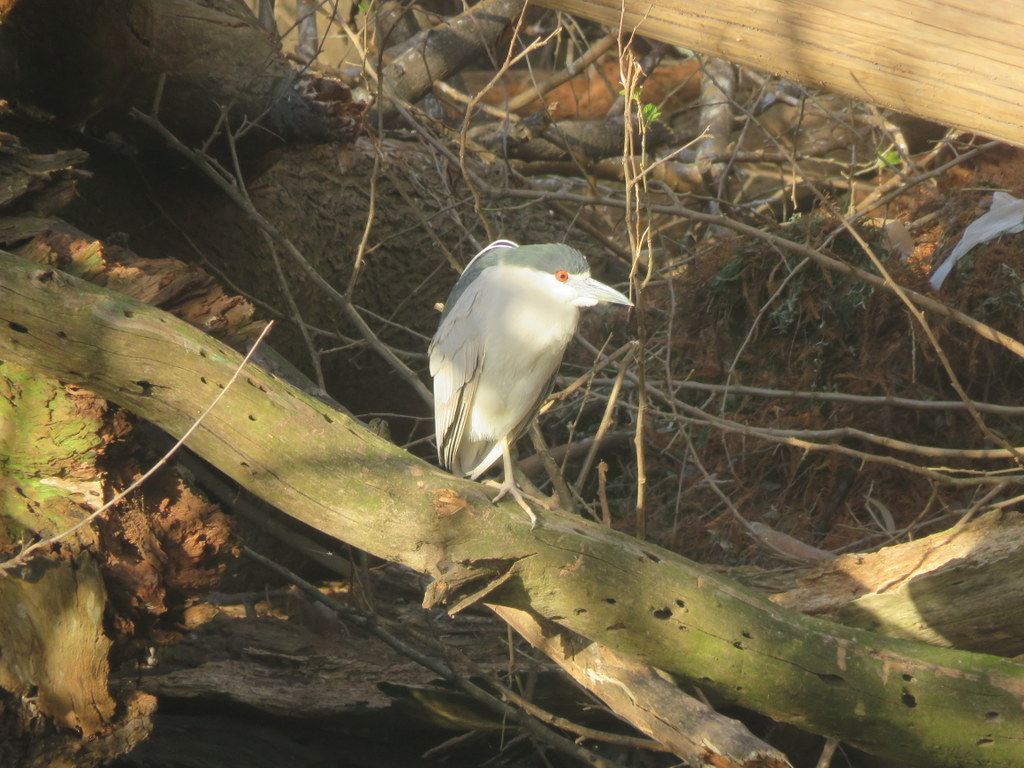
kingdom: Animalia
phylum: Chordata
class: Aves
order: Pelecaniformes
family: Ardeidae
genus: Nycticorax
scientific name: Nycticorax nycticorax
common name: Black-crowned night heron
